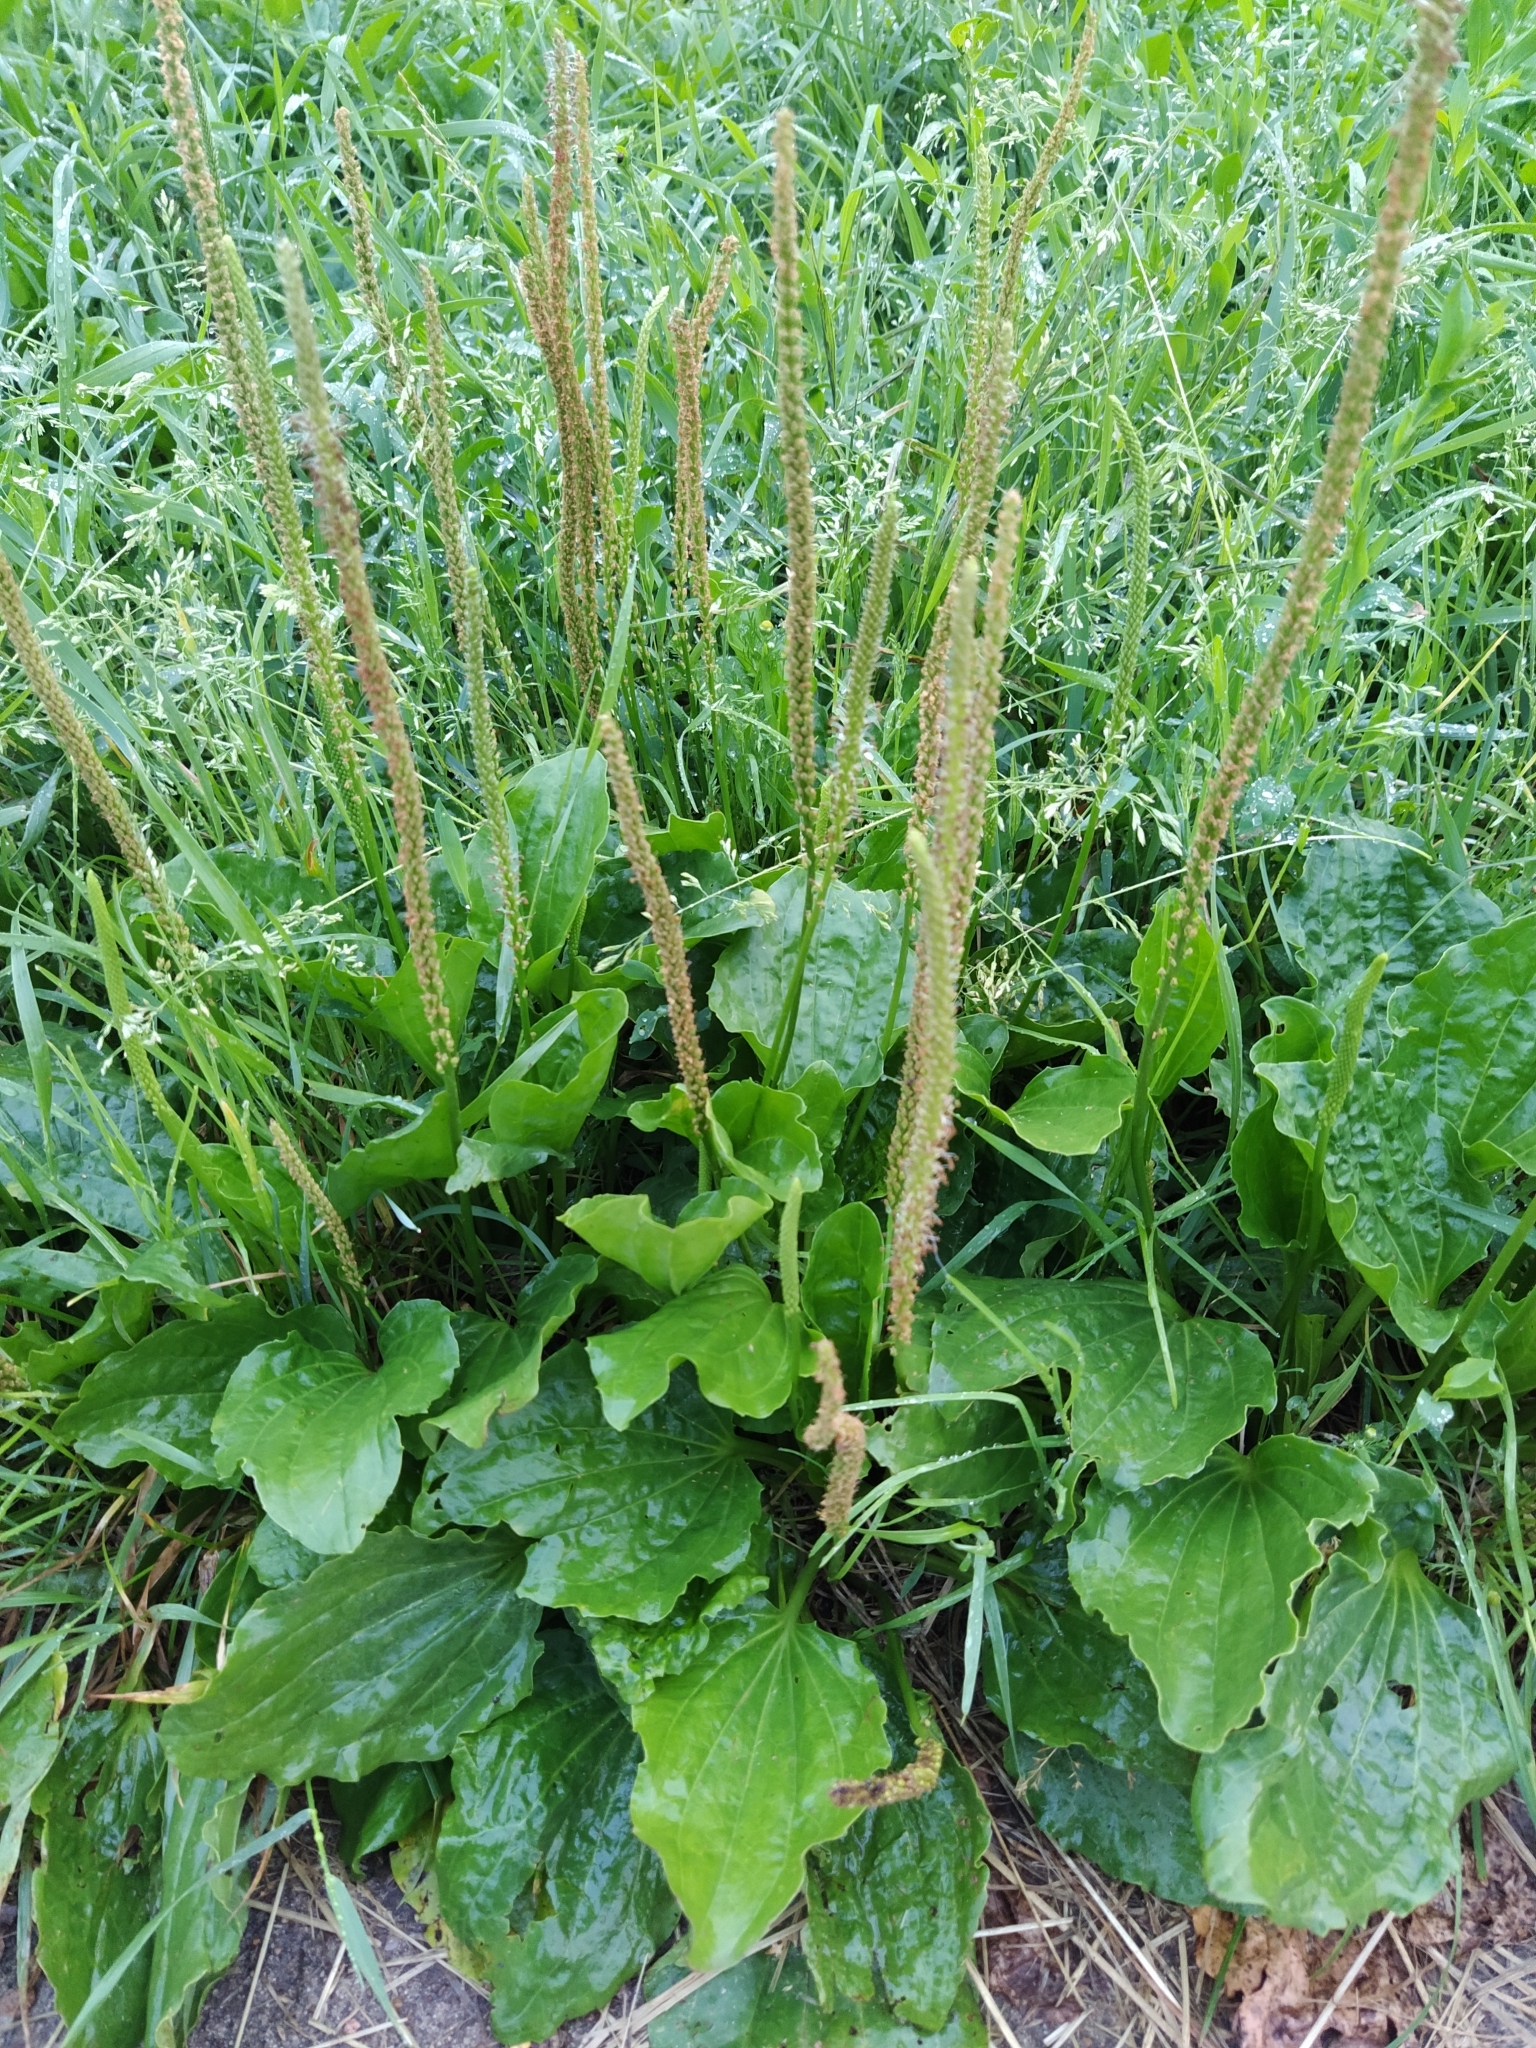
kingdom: Plantae
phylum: Tracheophyta
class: Magnoliopsida
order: Lamiales
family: Plantaginaceae
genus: Plantago
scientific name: Plantago major
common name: Common plantain
